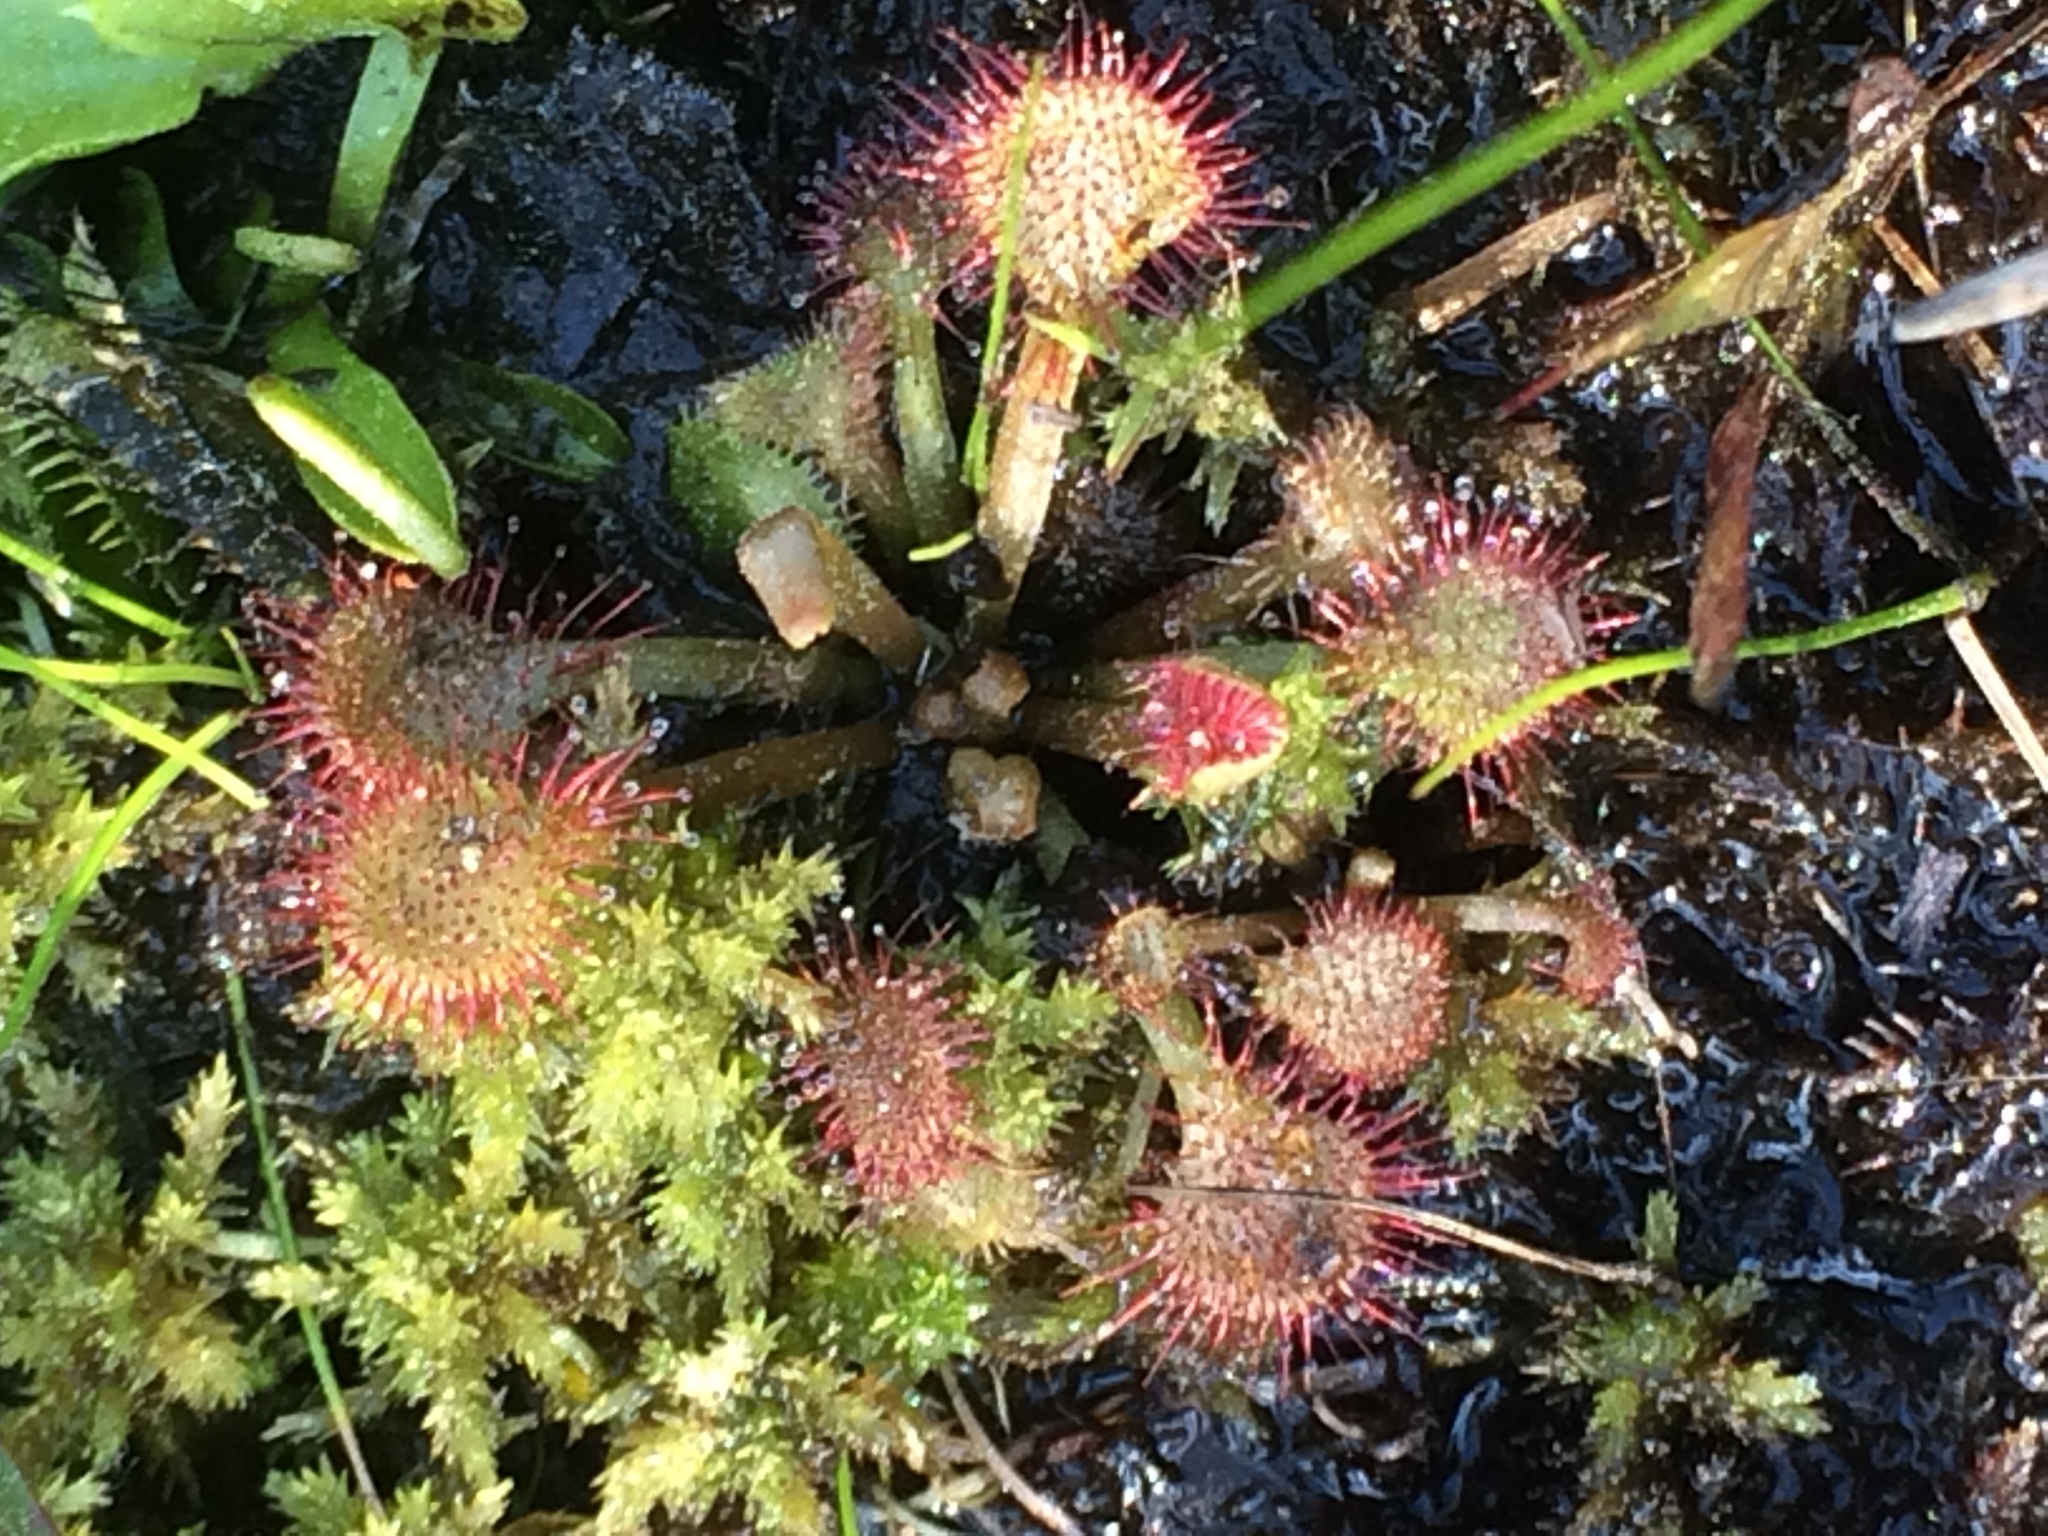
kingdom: Plantae
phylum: Tracheophyta
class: Magnoliopsida
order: Caryophyllales
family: Droseraceae
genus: Drosera
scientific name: Drosera capillaris
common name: Pink sundew
